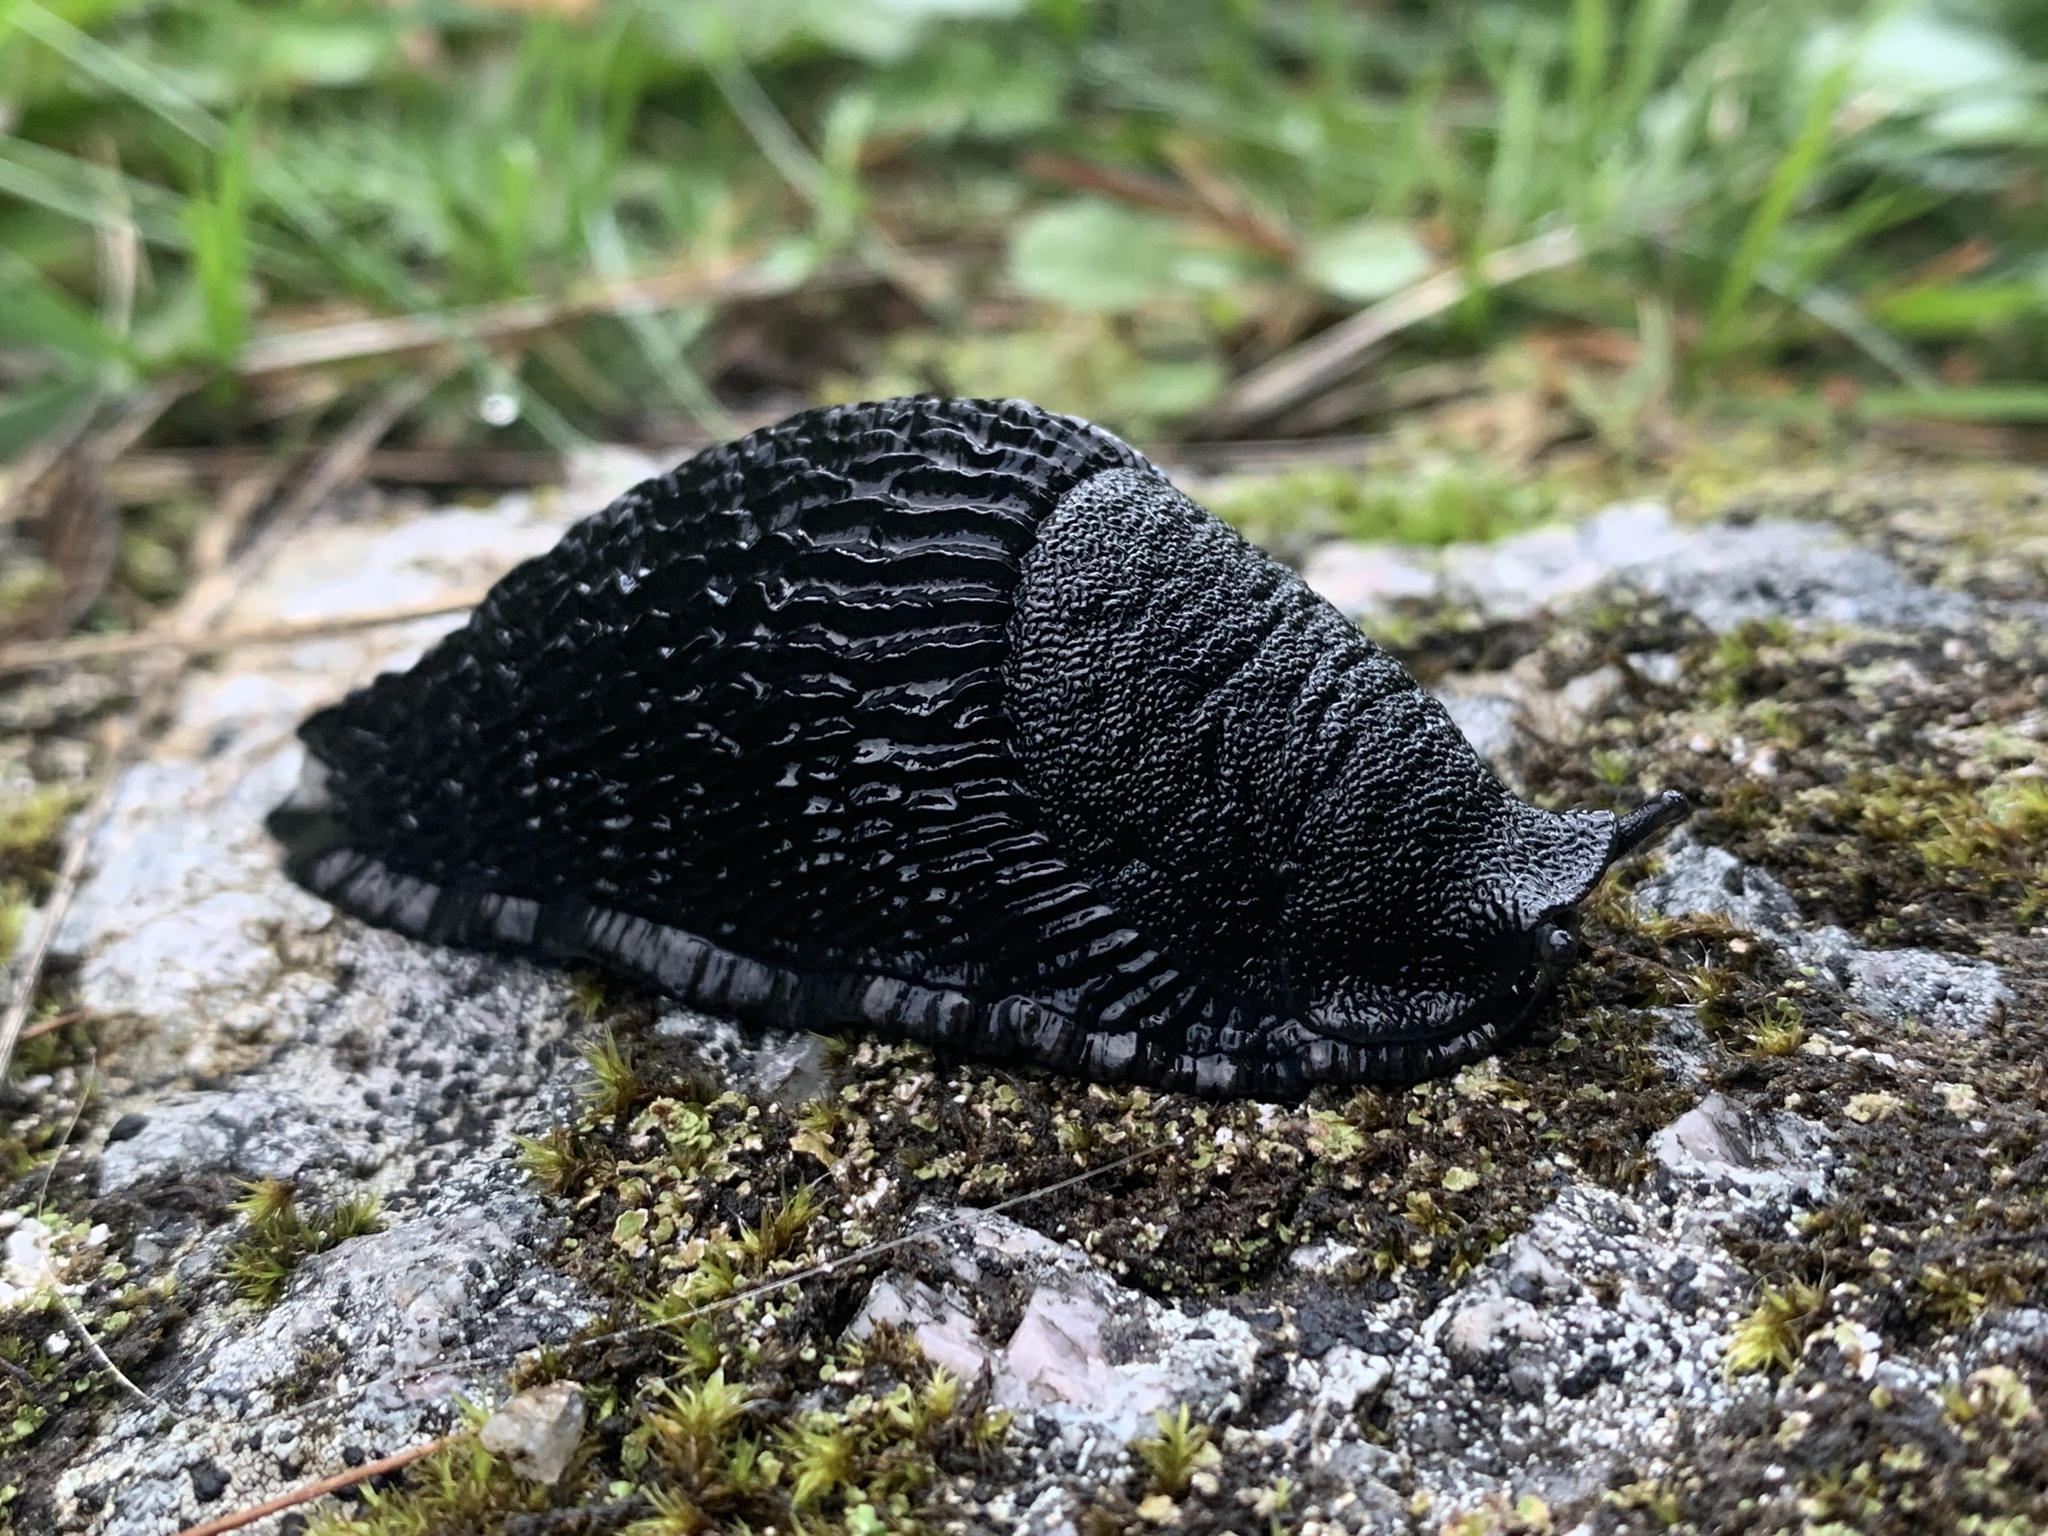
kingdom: Animalia
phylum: Mollusca
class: Gastropoda
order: Stylommatophora
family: Arionidae
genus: Arion
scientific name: Arion ater
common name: Black arion
